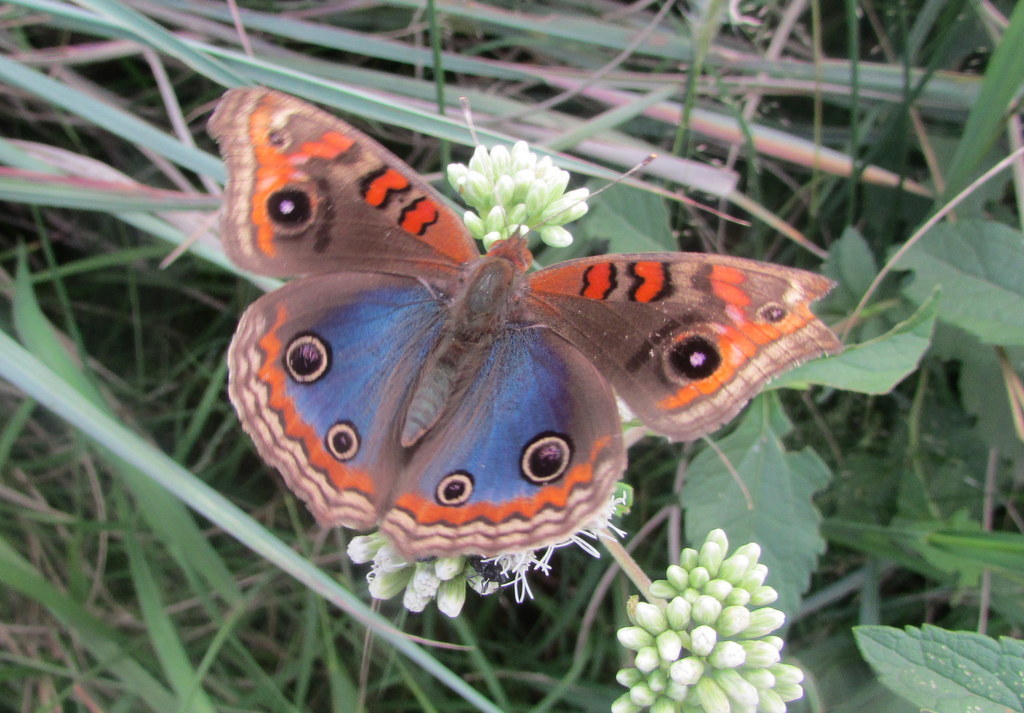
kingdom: Animalia
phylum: Arthropoda
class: Insecta
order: Lepidoptera
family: Nymphalidae
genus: Junonia
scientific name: Junonia lavinia
